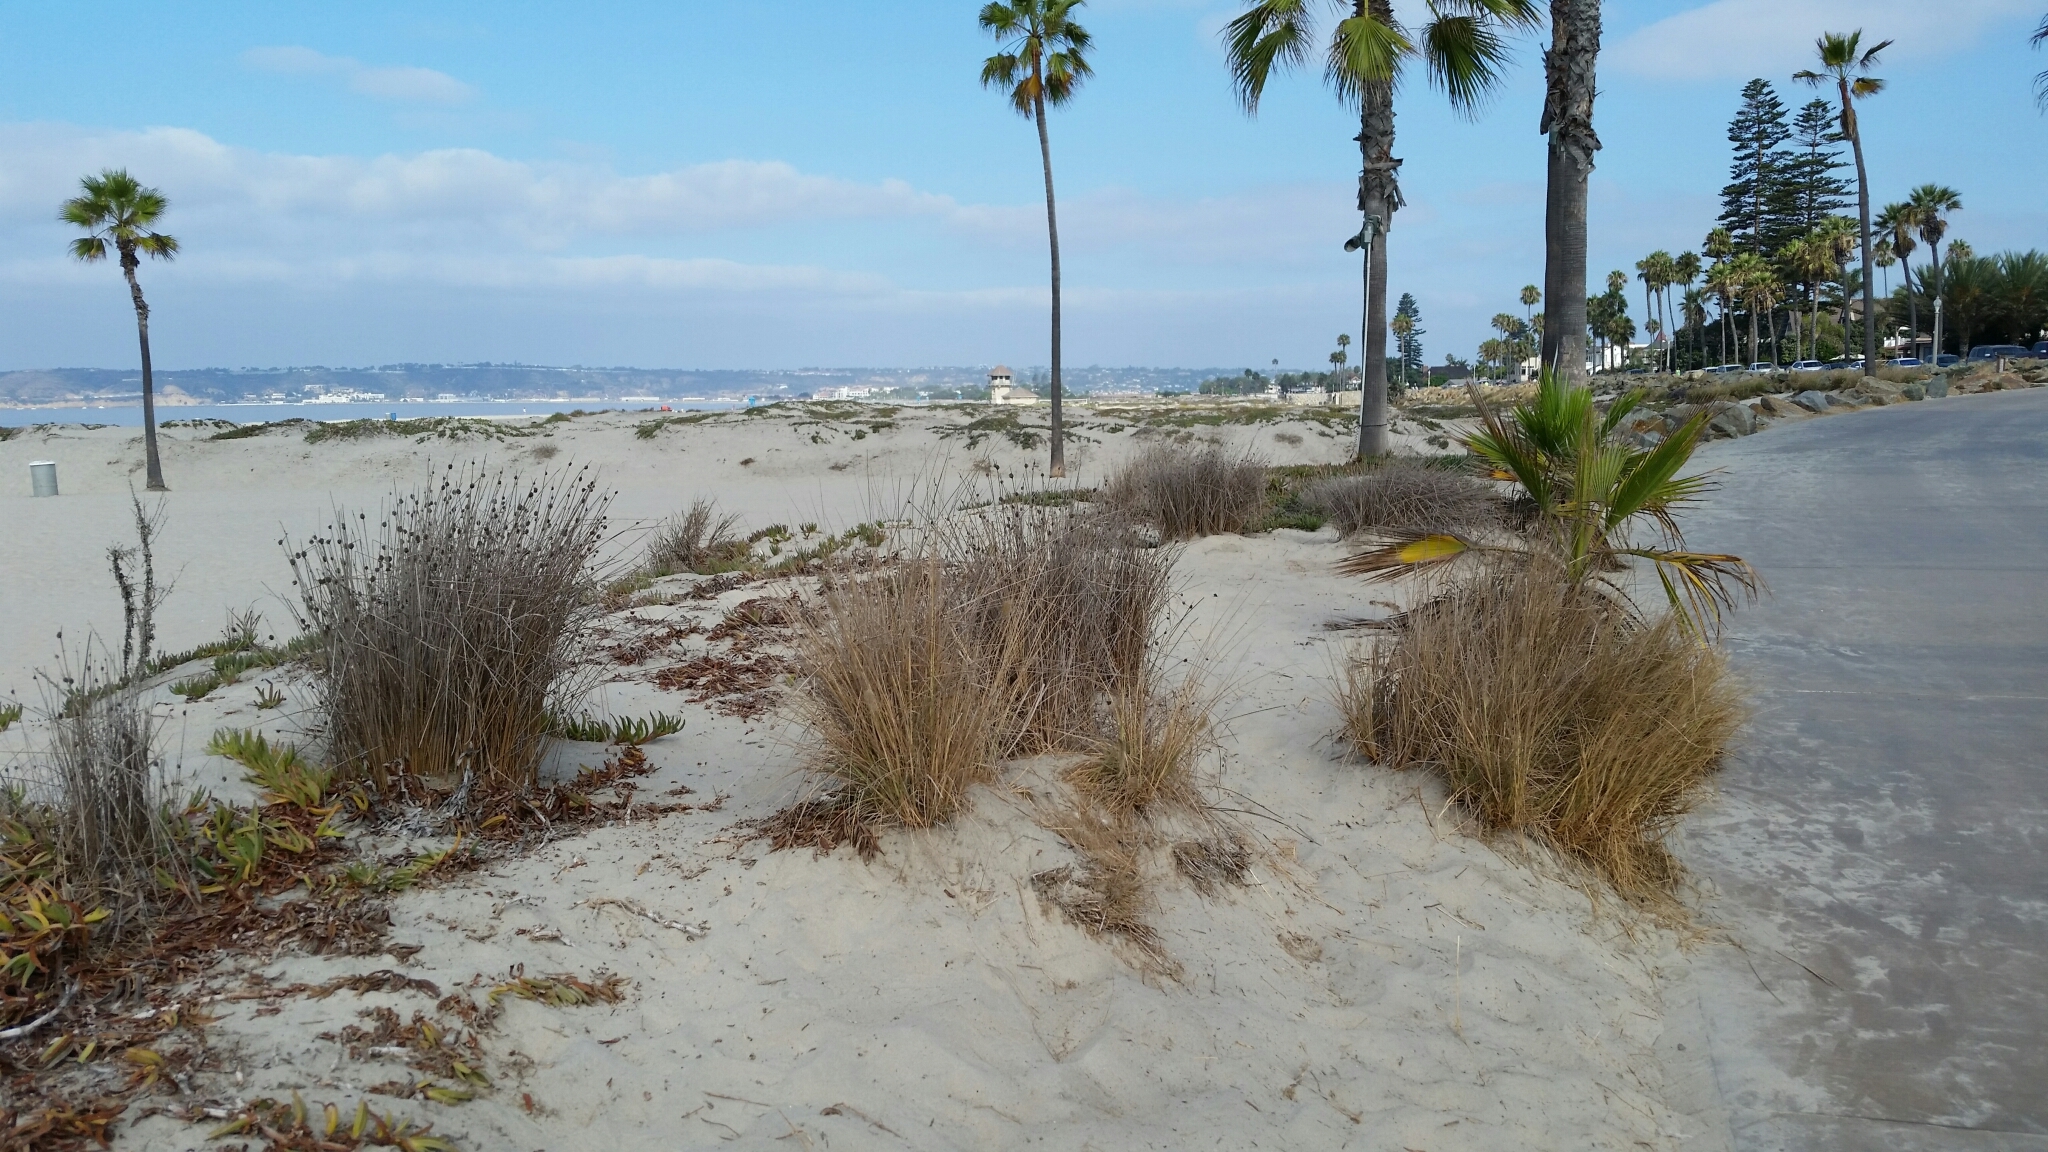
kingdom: Plantae
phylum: Tracheophyta
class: Liliopsida
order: Poales
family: Cyperaceae
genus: Ficinia
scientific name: Ficinia nodosa
